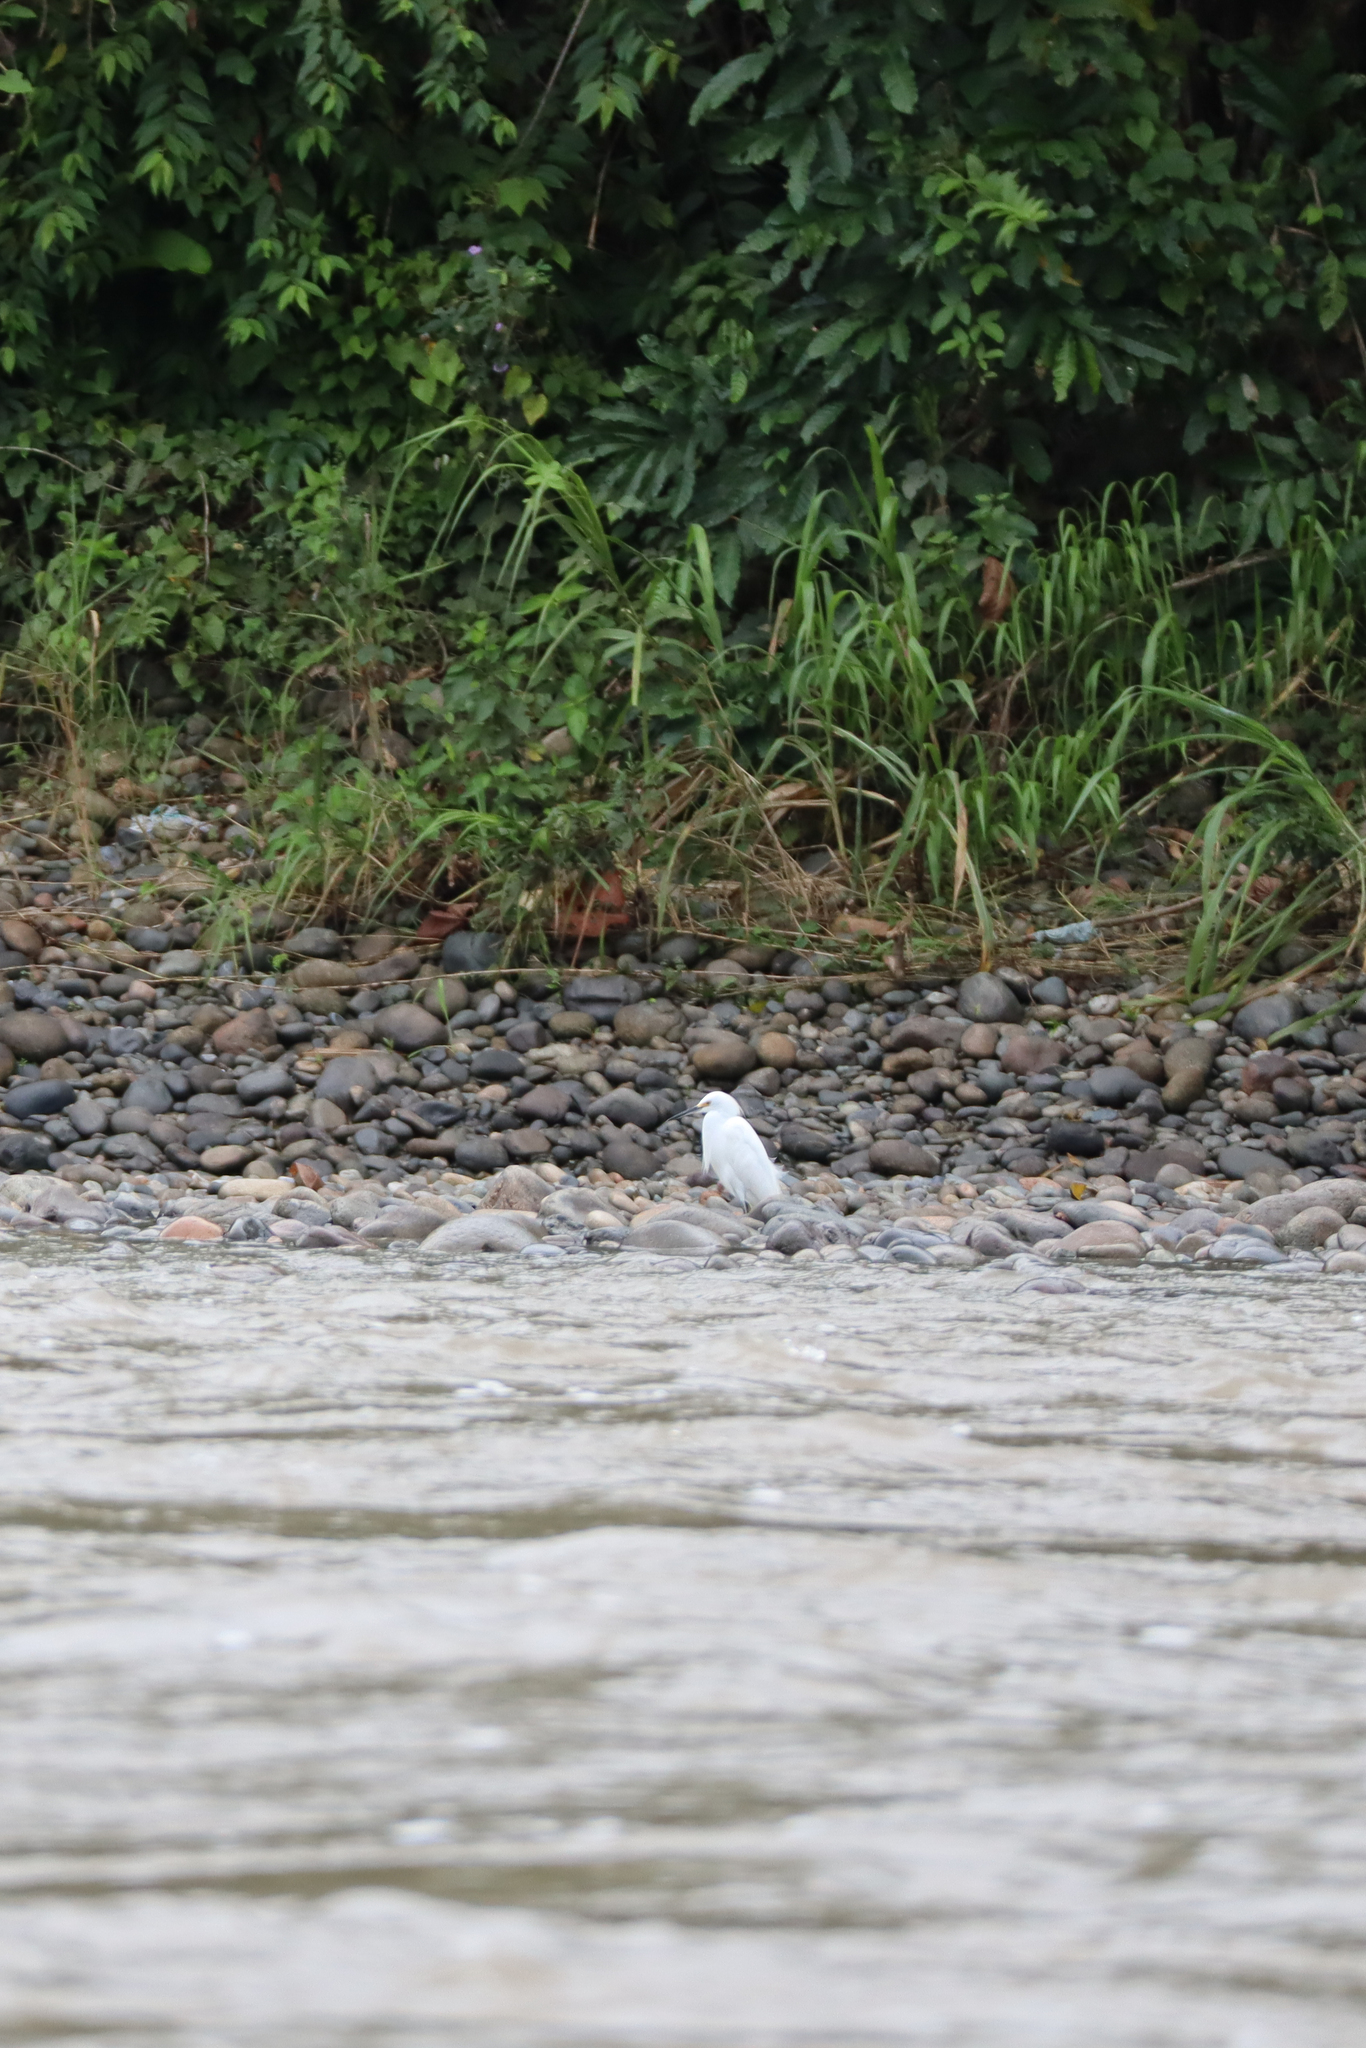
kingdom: Animalia
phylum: Chordata
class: Aves
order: Pelecaniformes
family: Ardeidae
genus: Egretta
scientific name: Egretta thula
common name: Snowy egret
